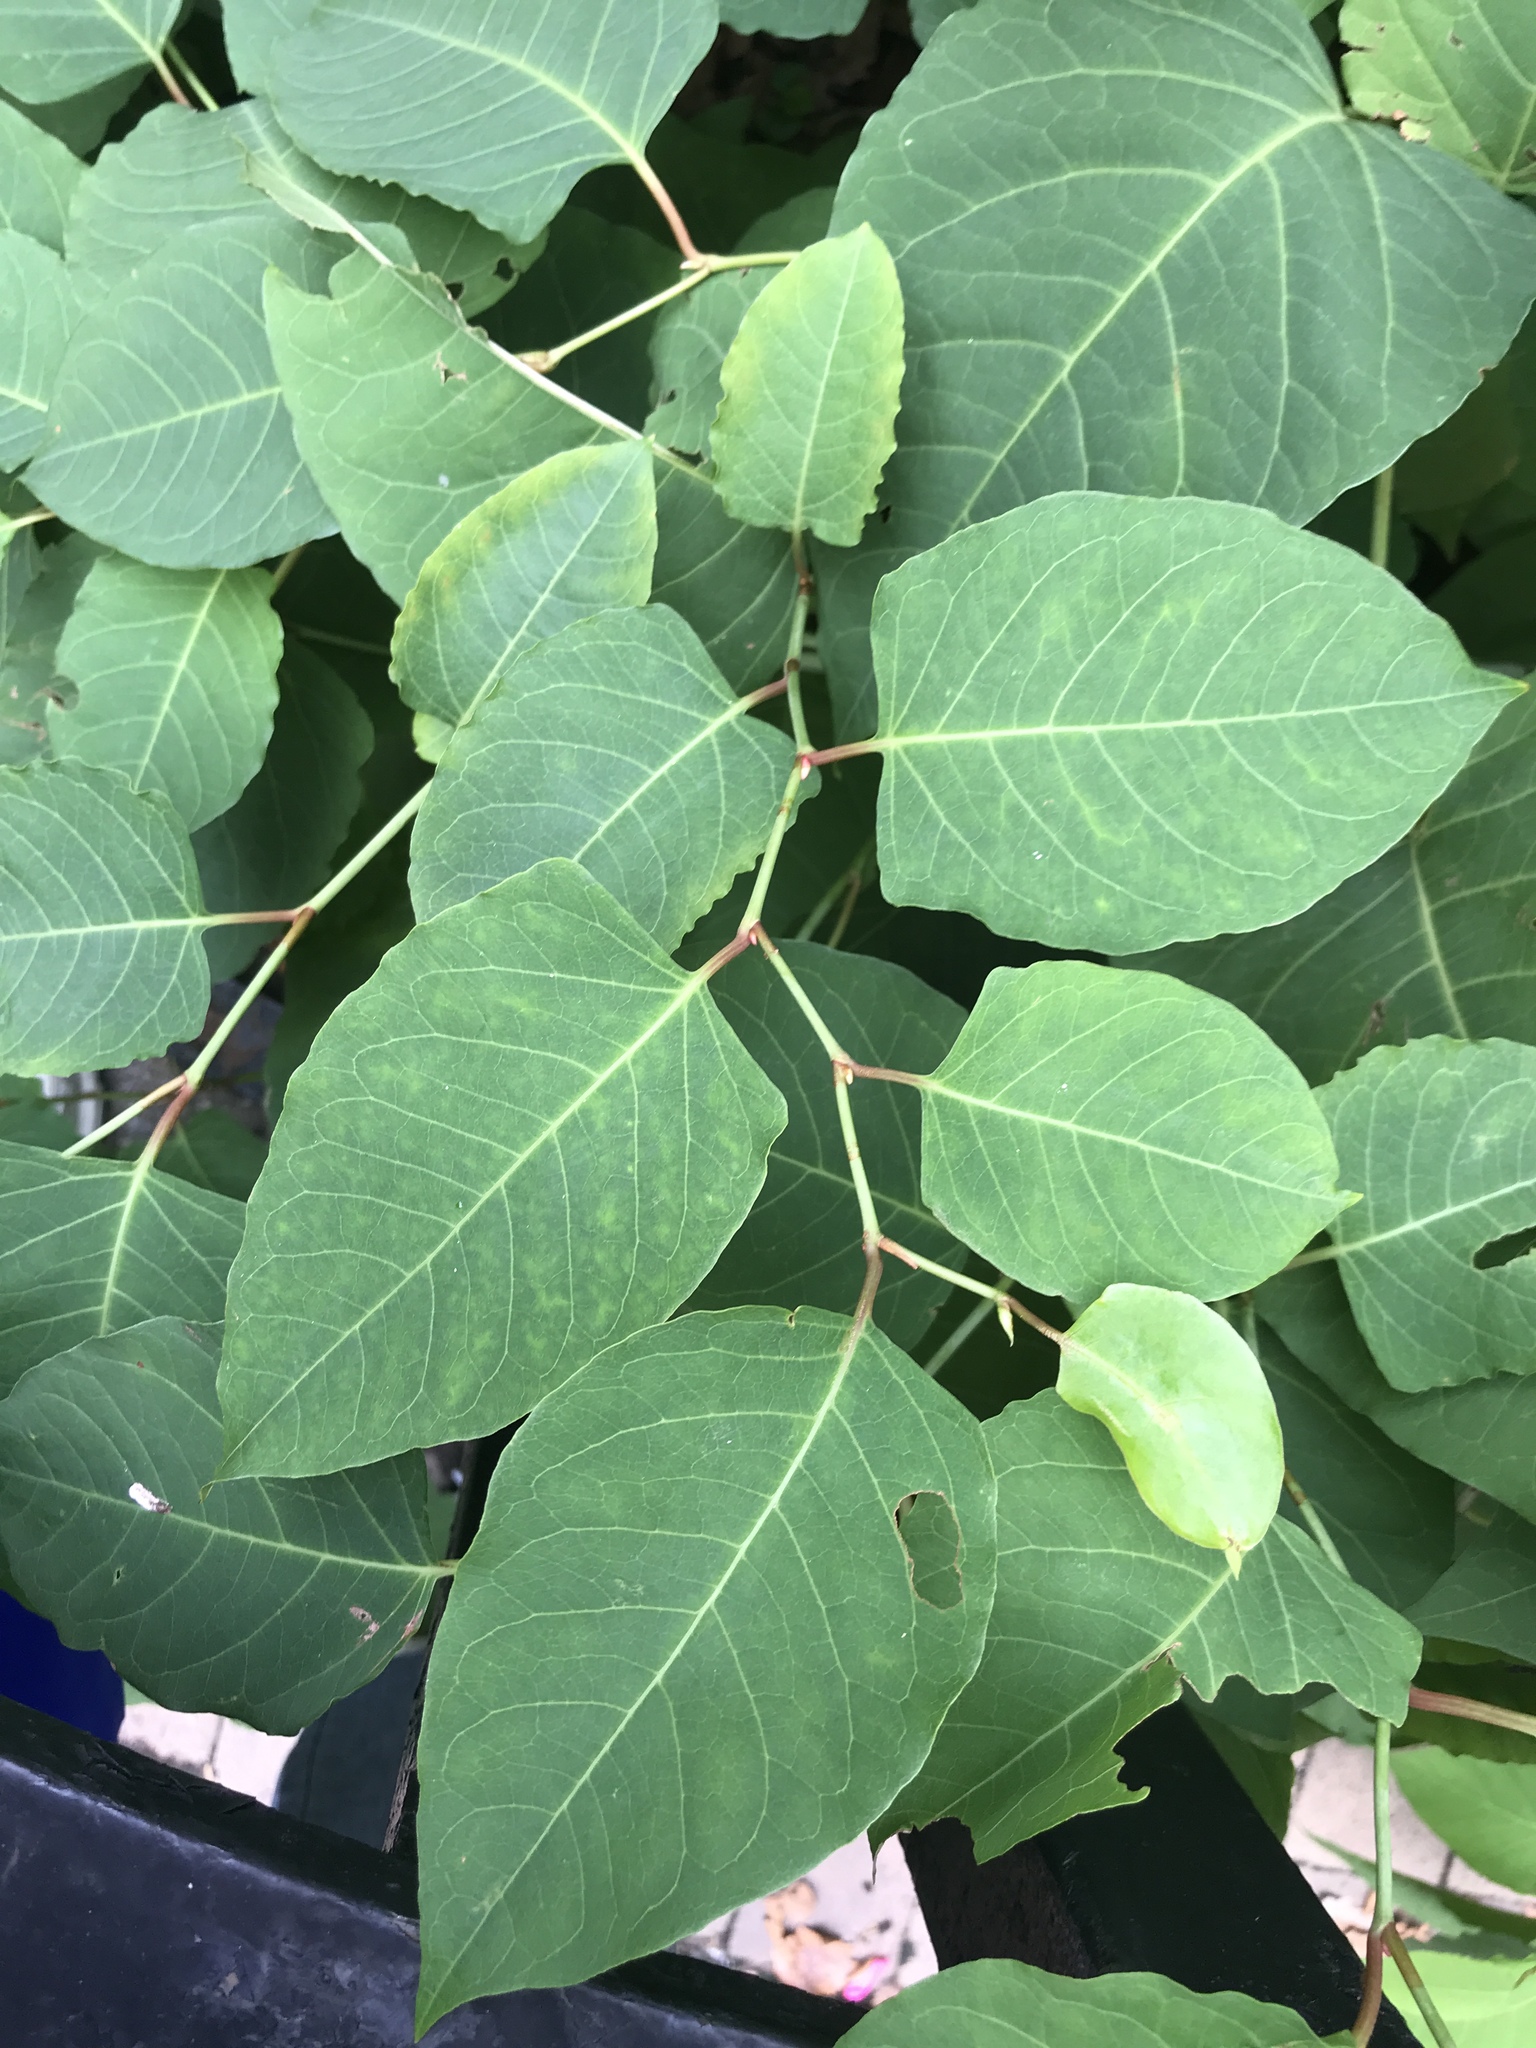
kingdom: Plantae
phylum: Tracheophyta
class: Magnoliopsida
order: Caryophyllales
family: Polygonaceae
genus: Reynoutria
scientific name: Reynoutria japonica
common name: Japanese knotweed
